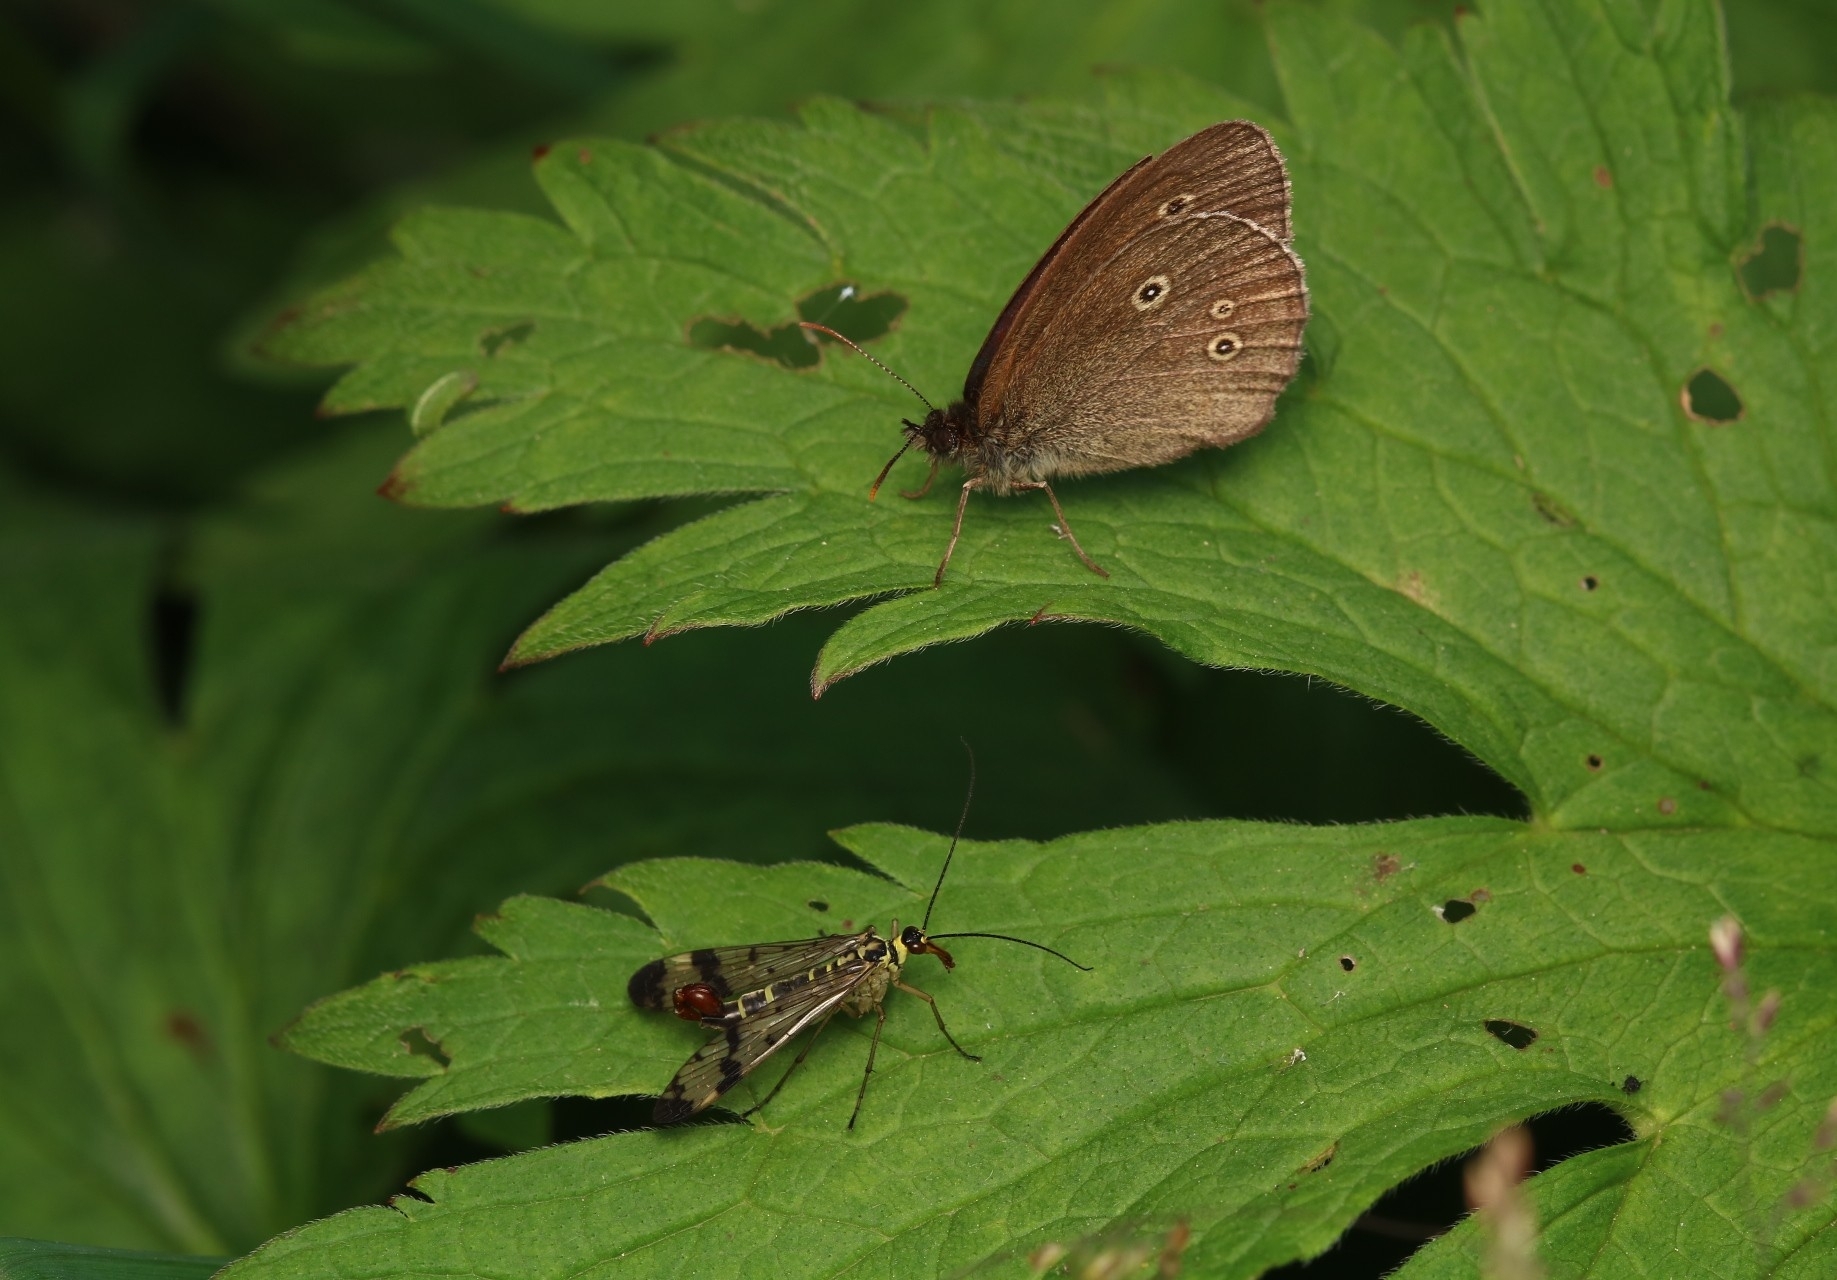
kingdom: Animalia
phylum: Arthropoda
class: Insecta
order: Lepidoptera
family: Nymphalidae
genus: Aphantopus
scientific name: Aphantopus hyperantus
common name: Ringlet
